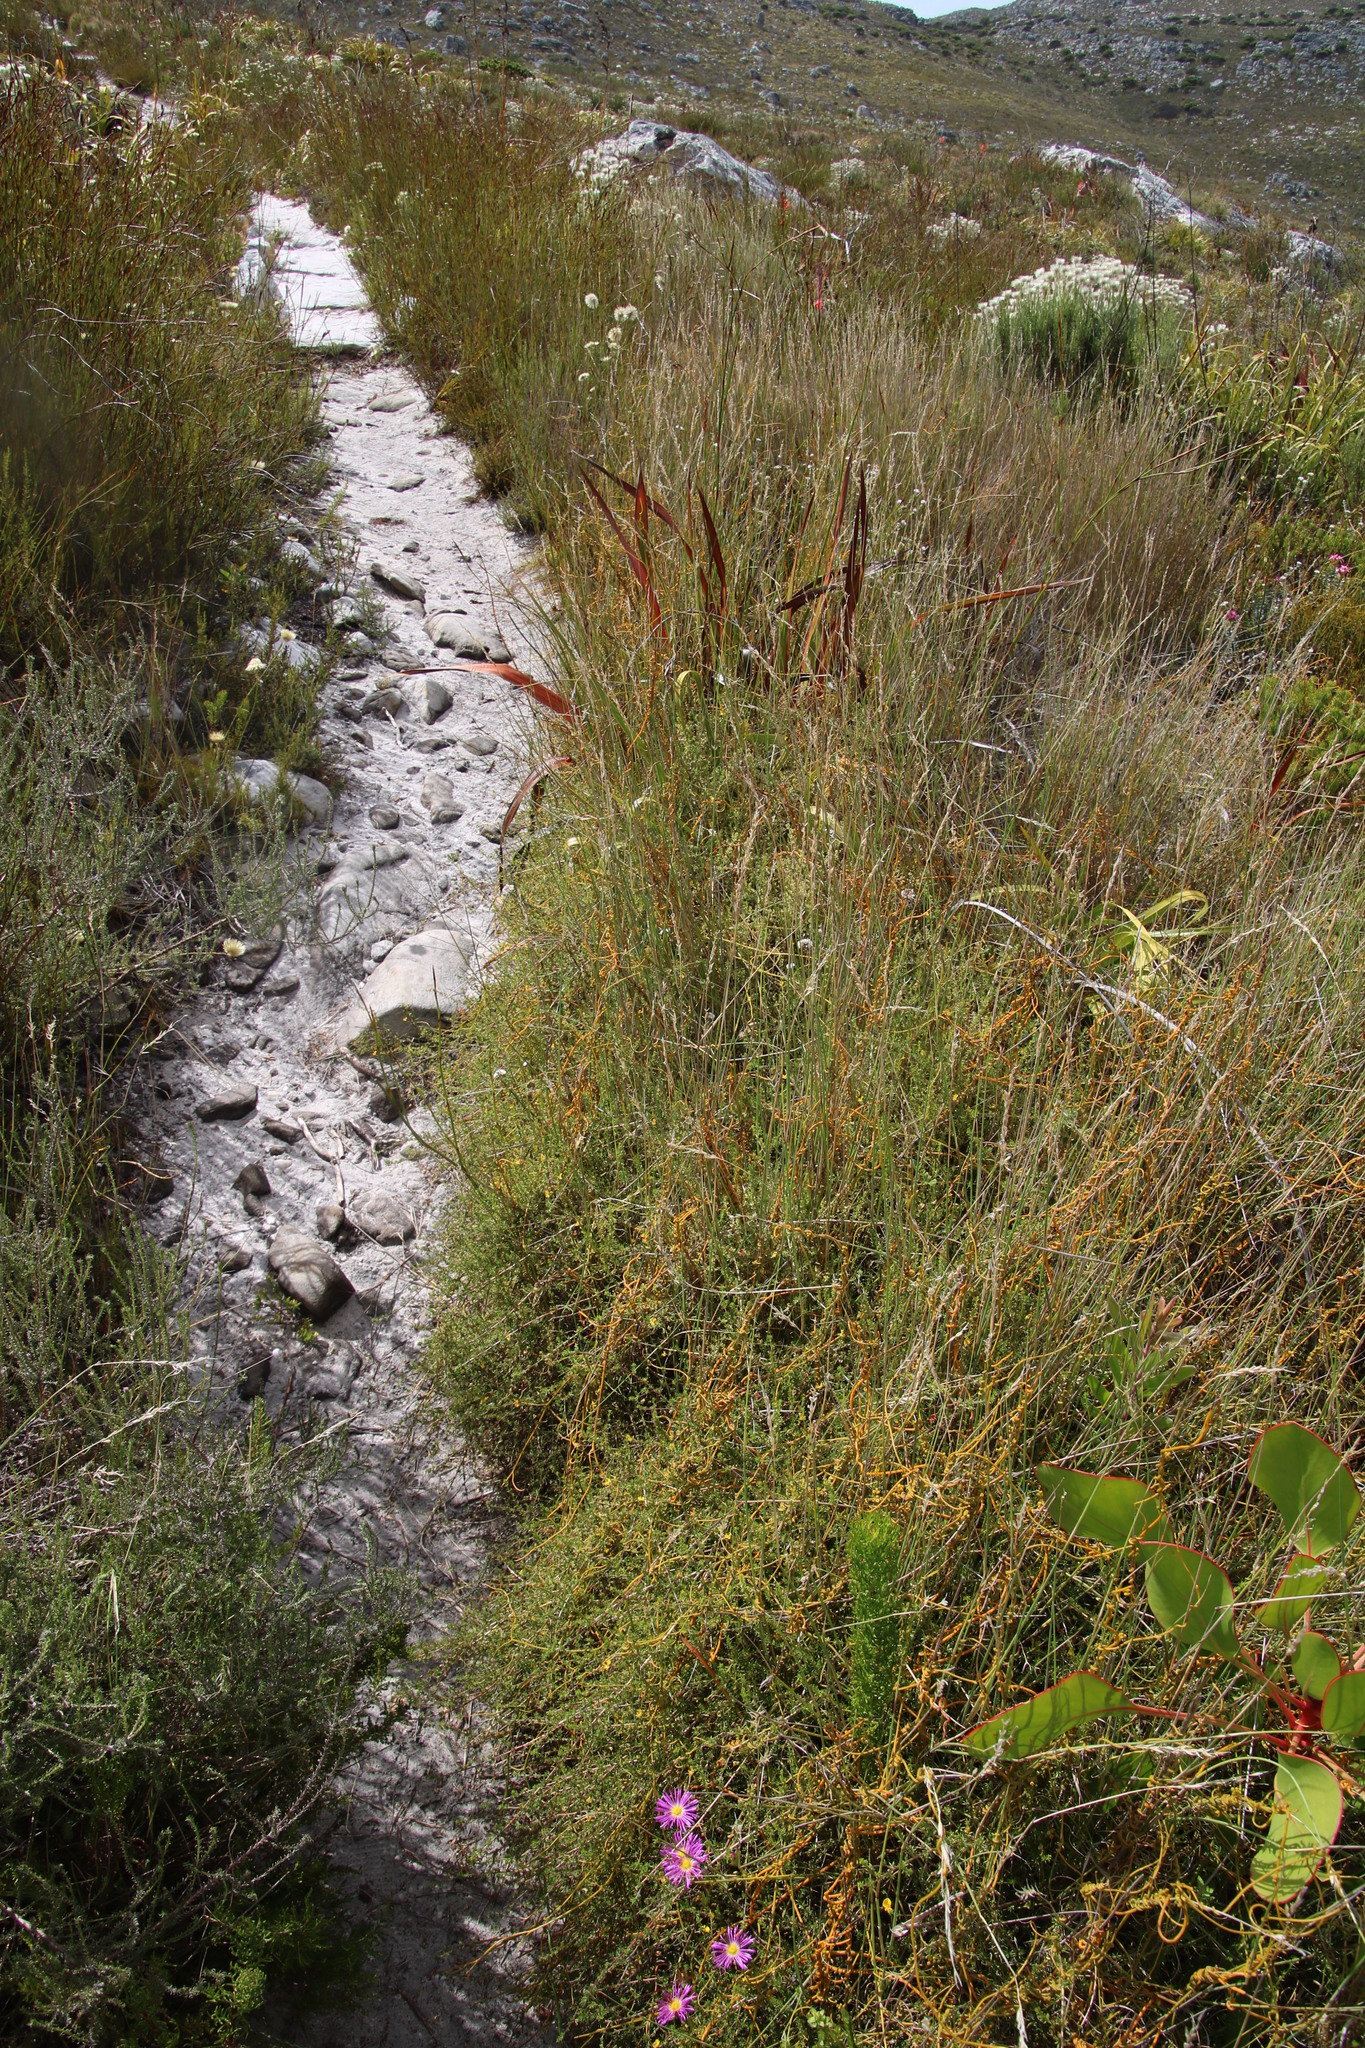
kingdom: Plantae
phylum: Tracheophyta
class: Magnoliopsida
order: Fabales
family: Fabaceae
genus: Aspalathus
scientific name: Aspalathus serpens
